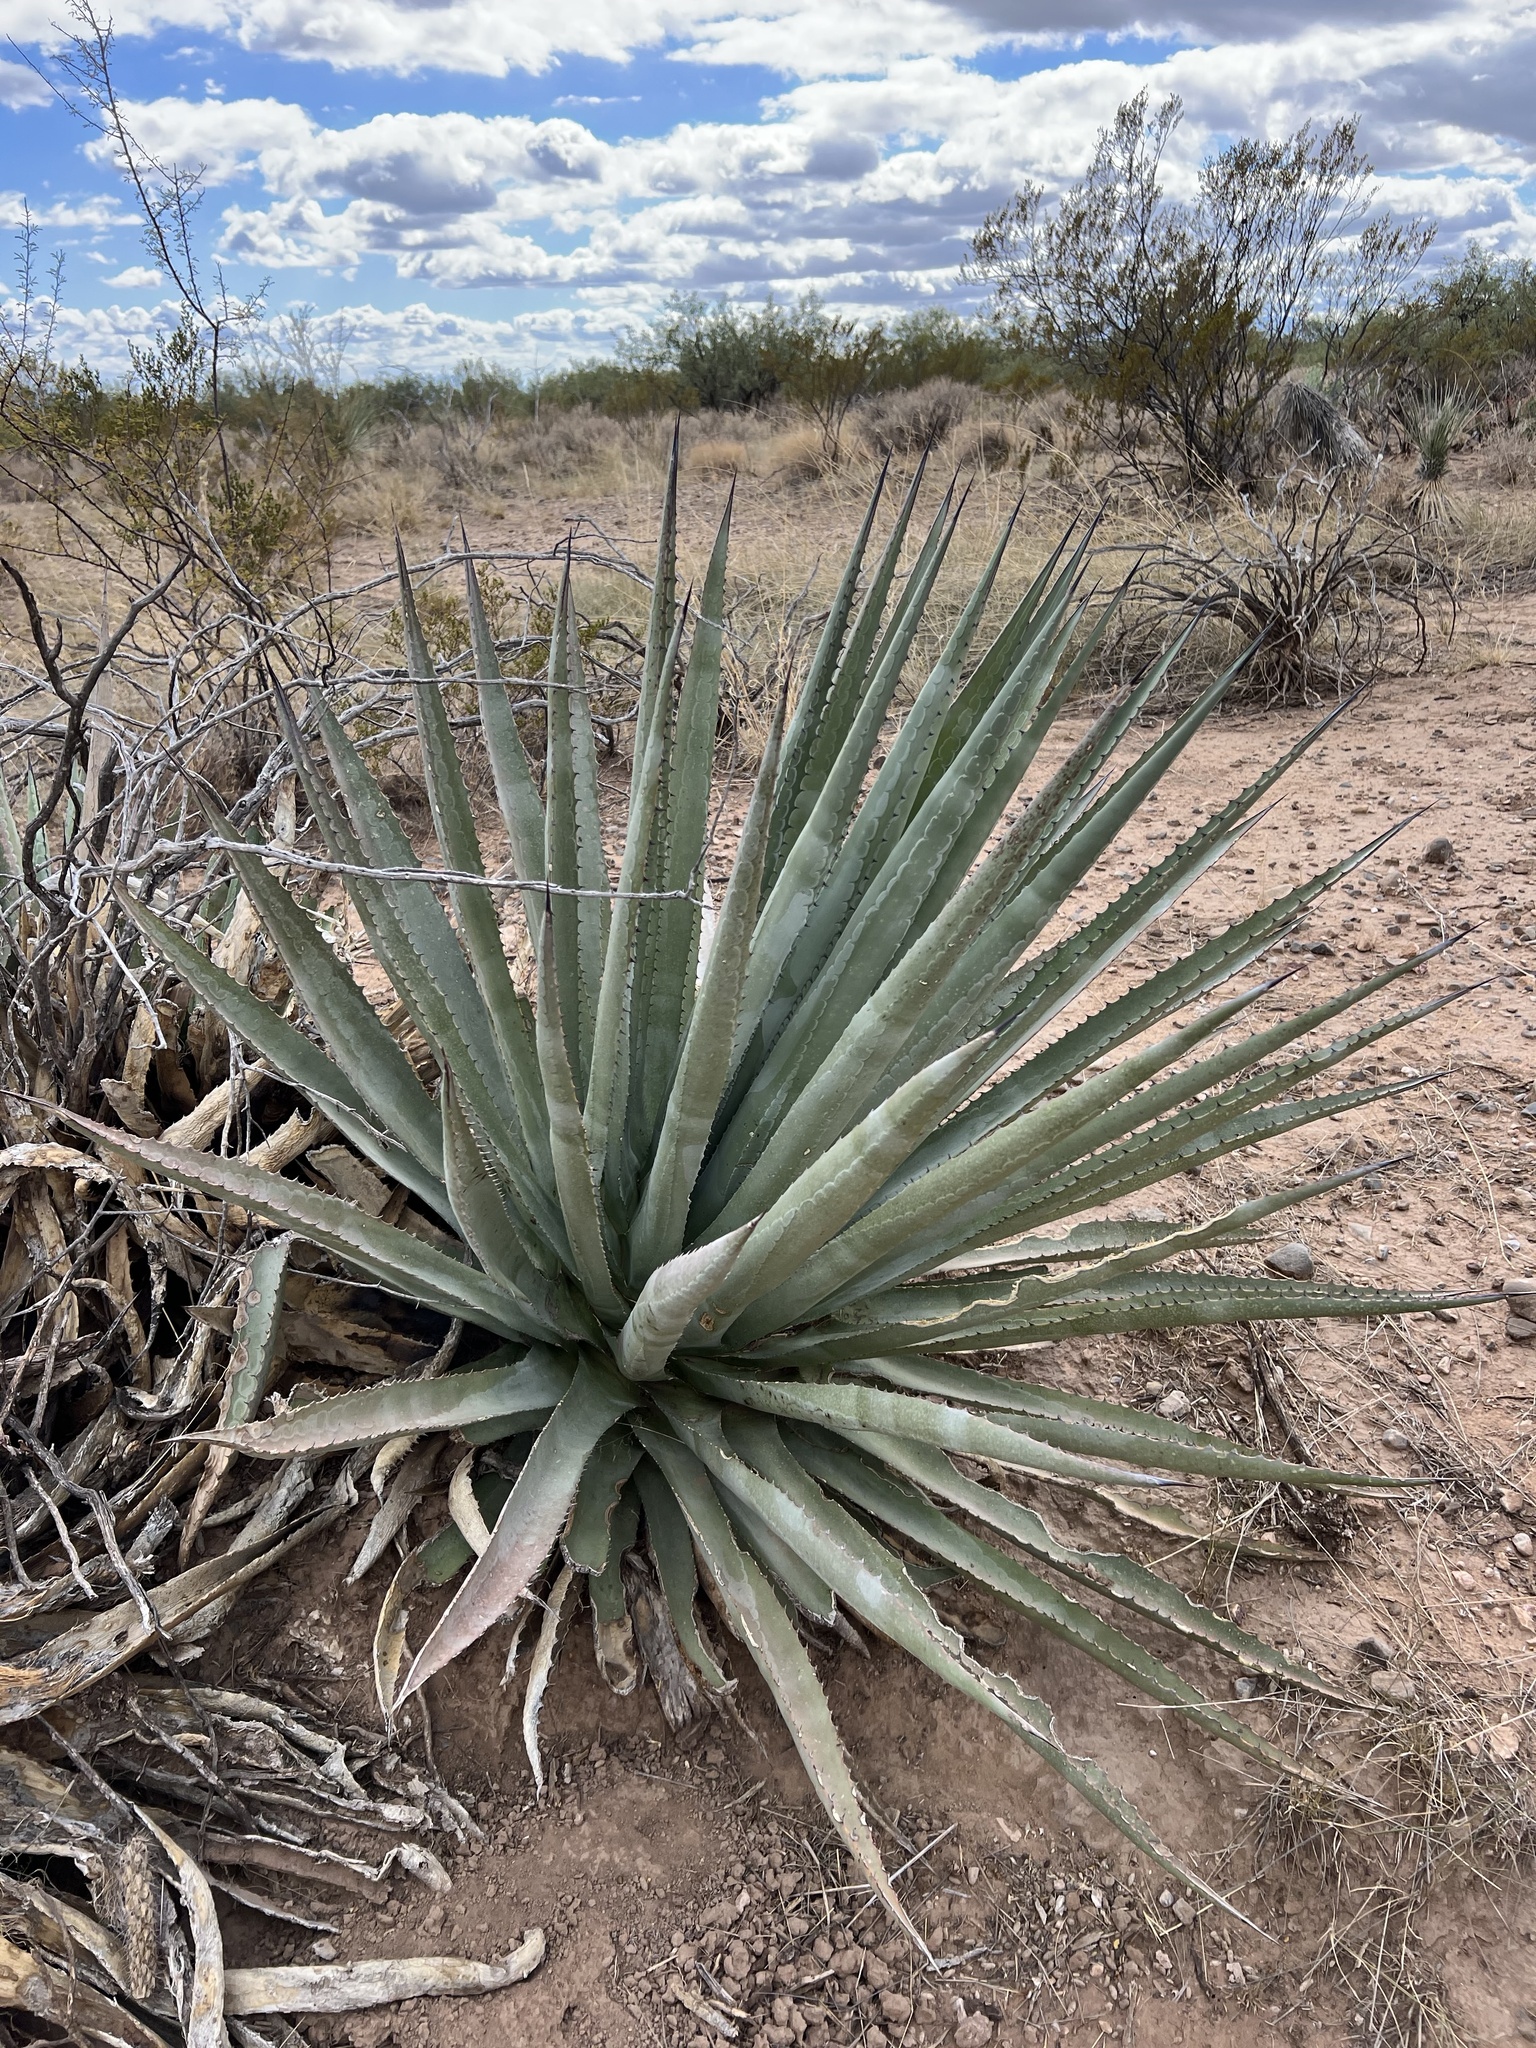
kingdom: Plantae
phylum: Tracheophyta
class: Liliopsida
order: Asparagales
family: Asparagaceae
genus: Agave
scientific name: Agave palmeri
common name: Palmer agave
